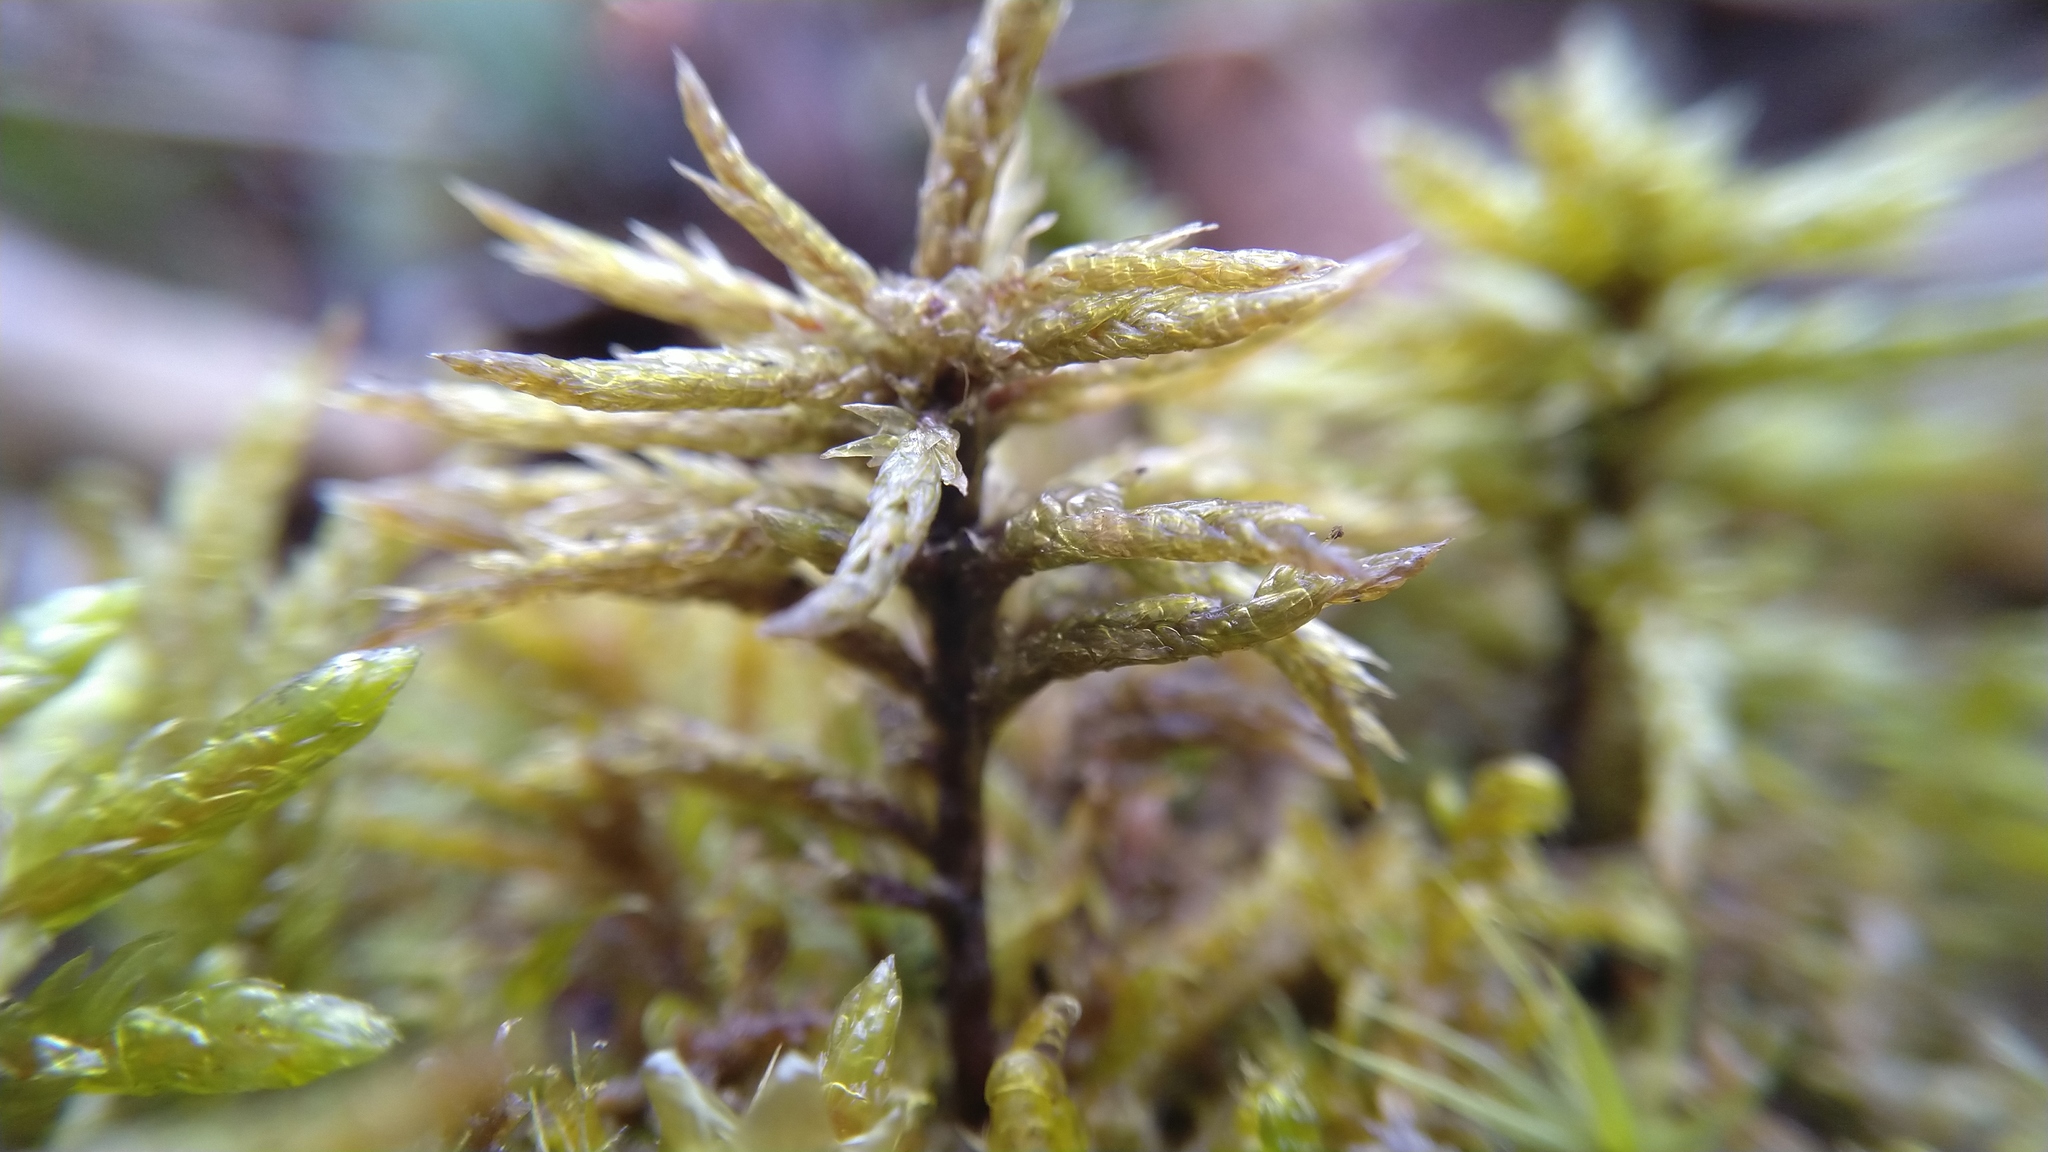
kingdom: Plantae
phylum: Bryophyta
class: Bryopsida
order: Hypnales
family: Climaciaceae
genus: Climacium
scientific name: Climacium dendroides
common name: Northern tree moss
